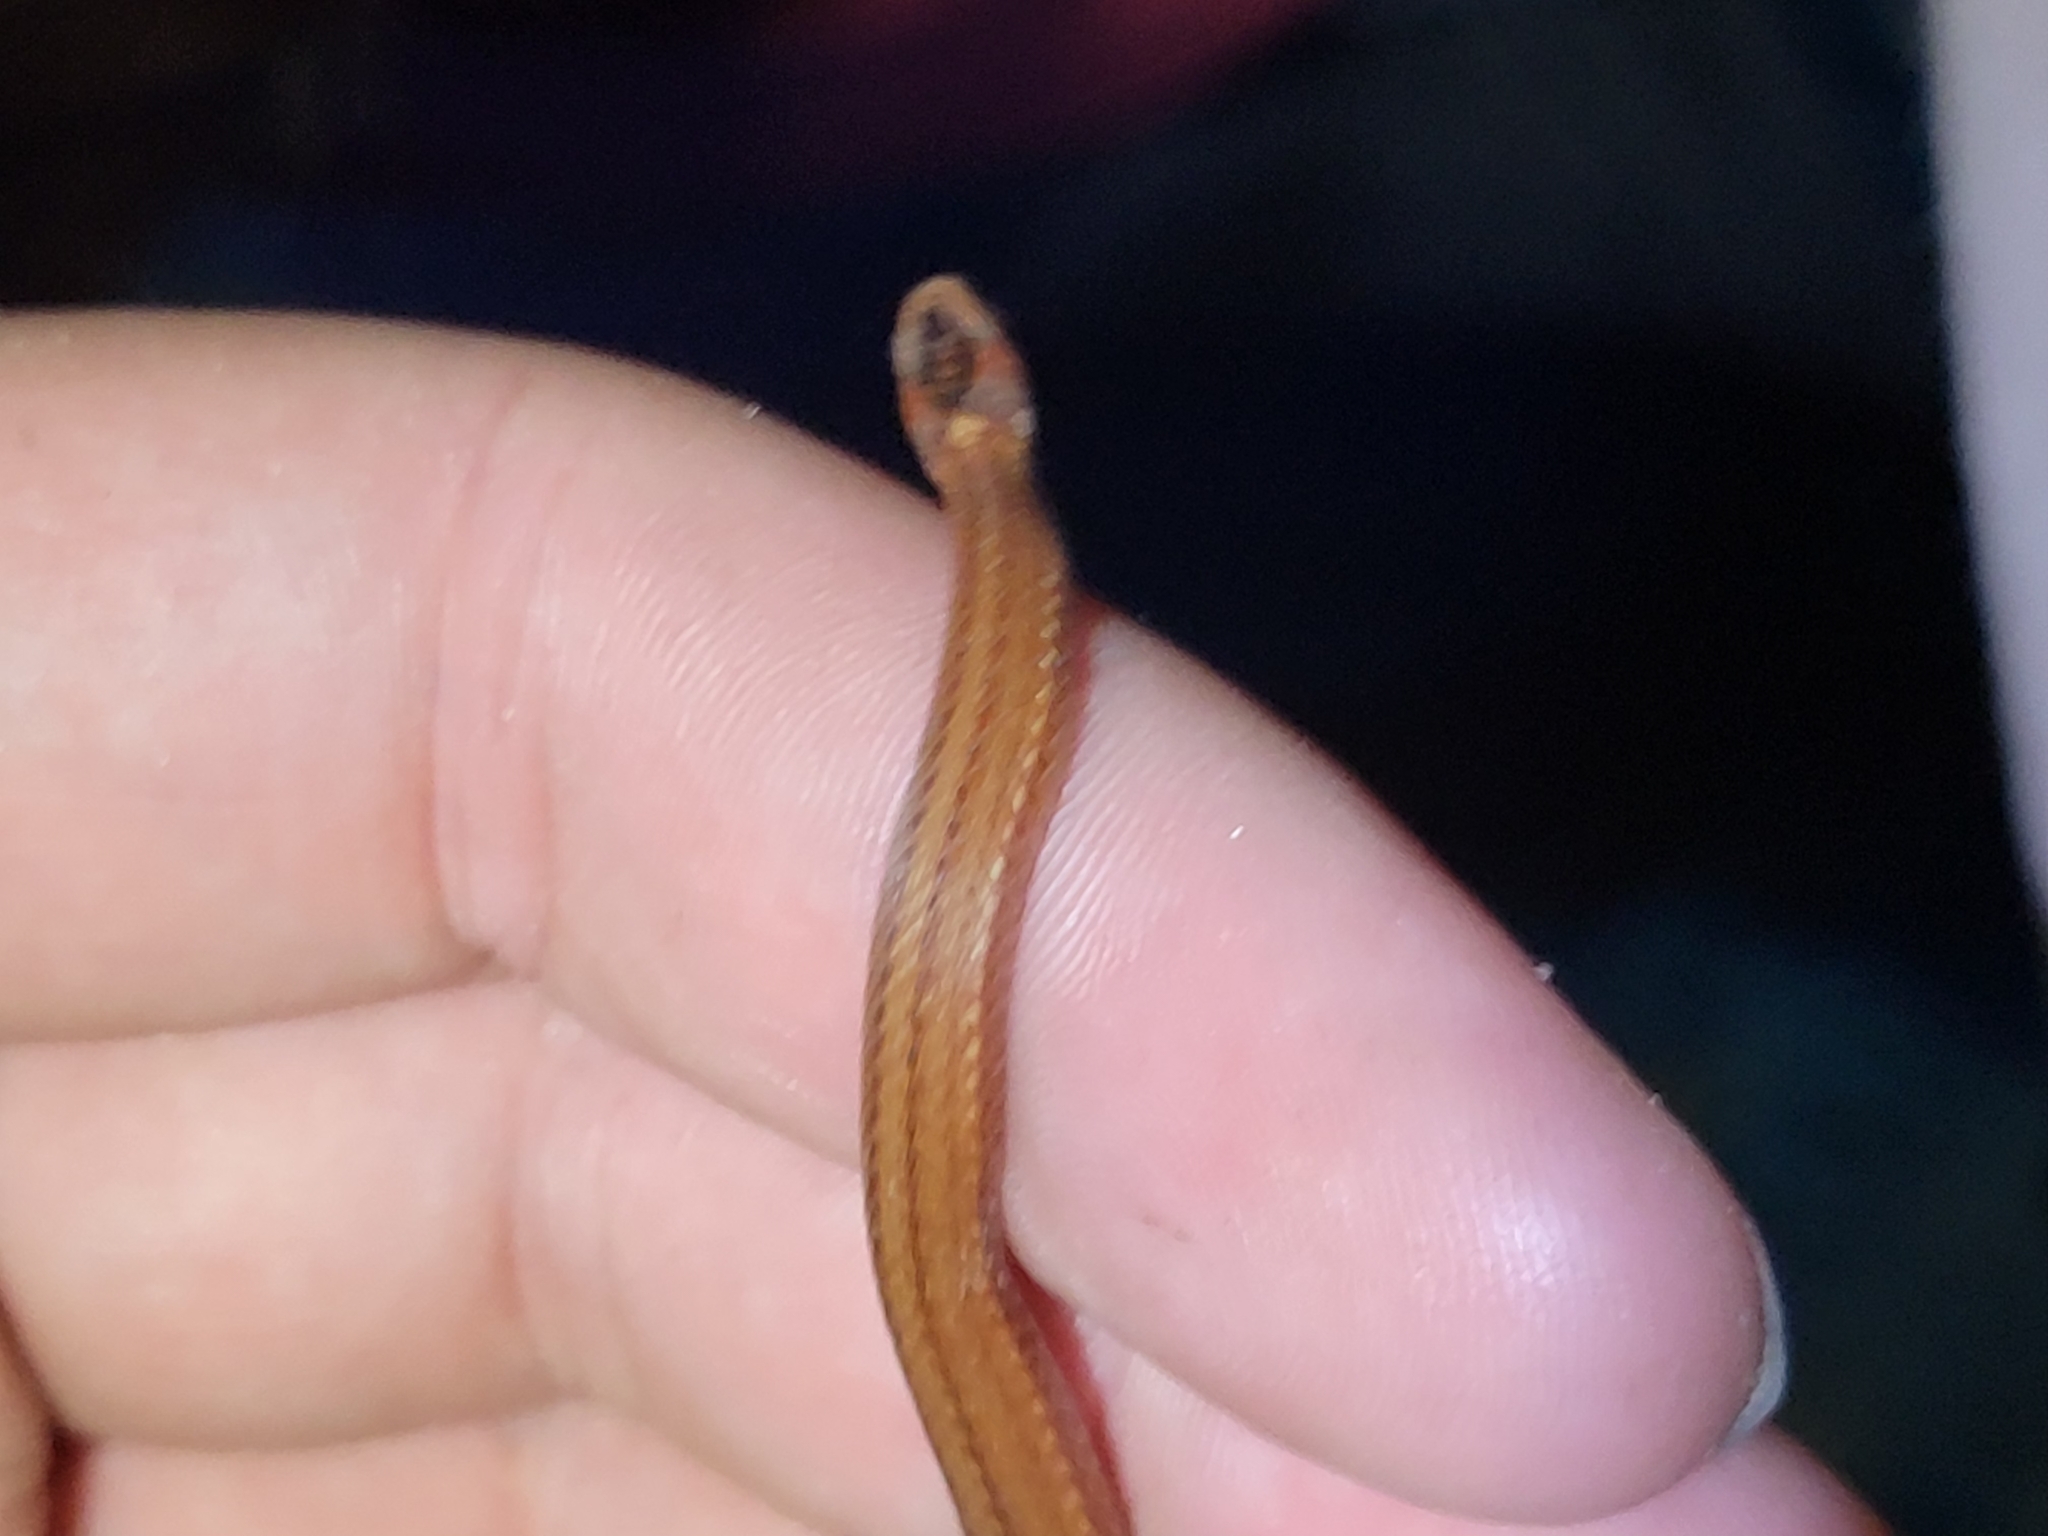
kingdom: Animalia
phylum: Chordata
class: Squamata
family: Colubridae
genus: Storeria
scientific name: Storeria occipitomaculata
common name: Redbelly snake
